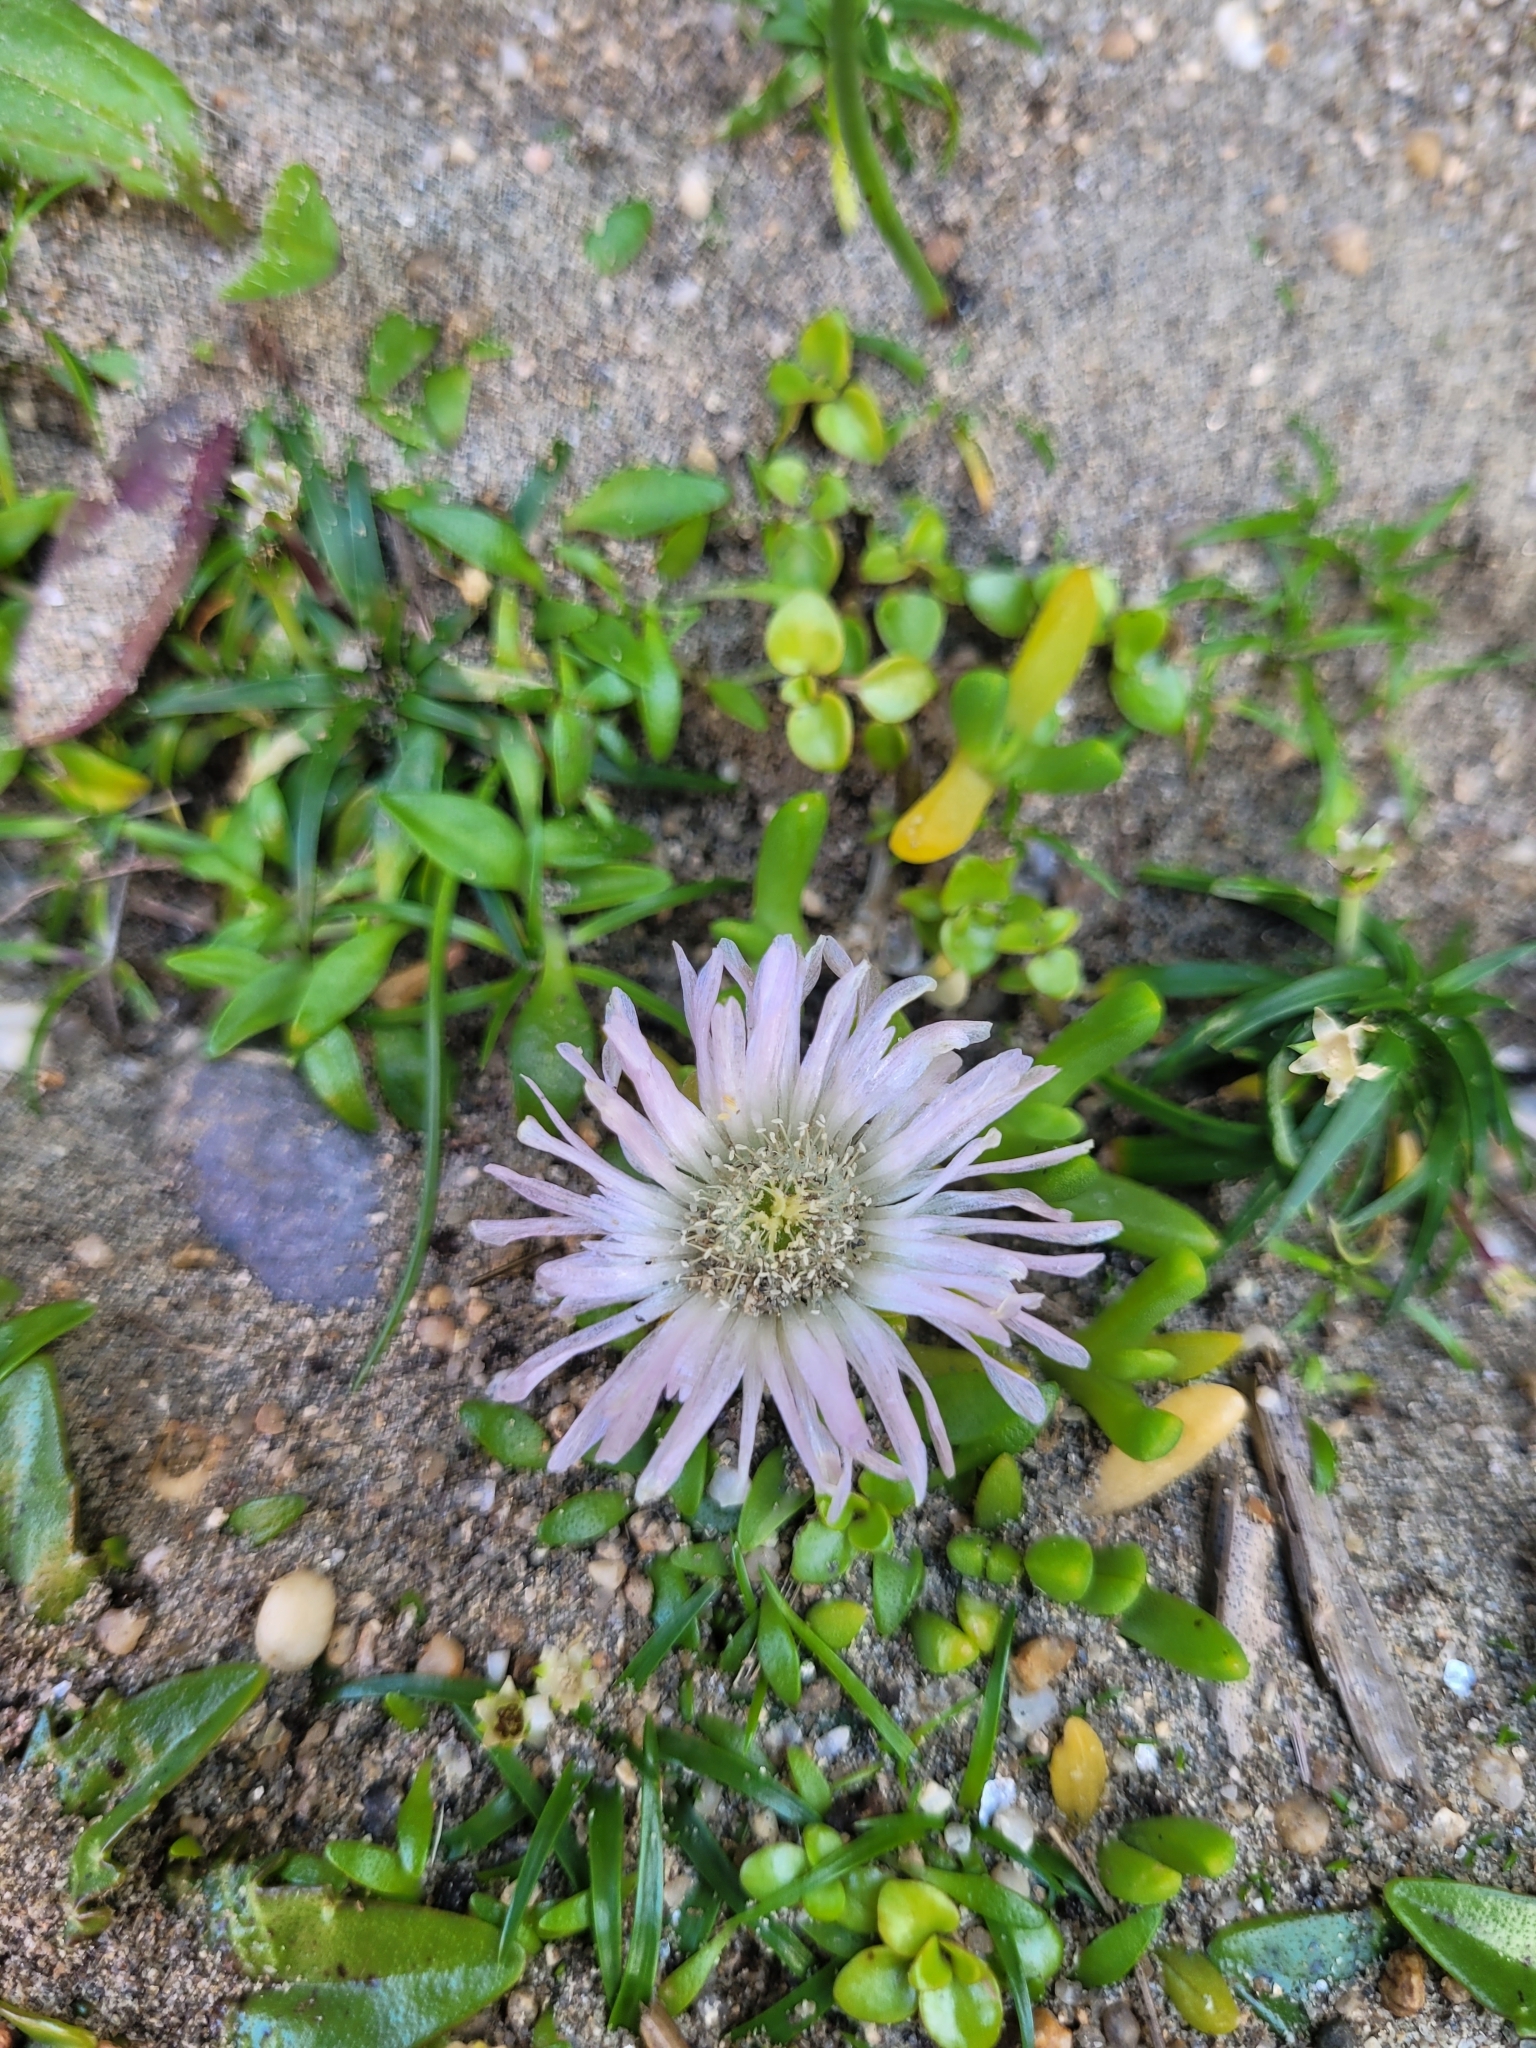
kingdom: Plantae
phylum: Tracheophyta
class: Magnoliopsida
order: Caryophyllales
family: Aizoaceae
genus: Disphyma
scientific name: Disphyma australe
